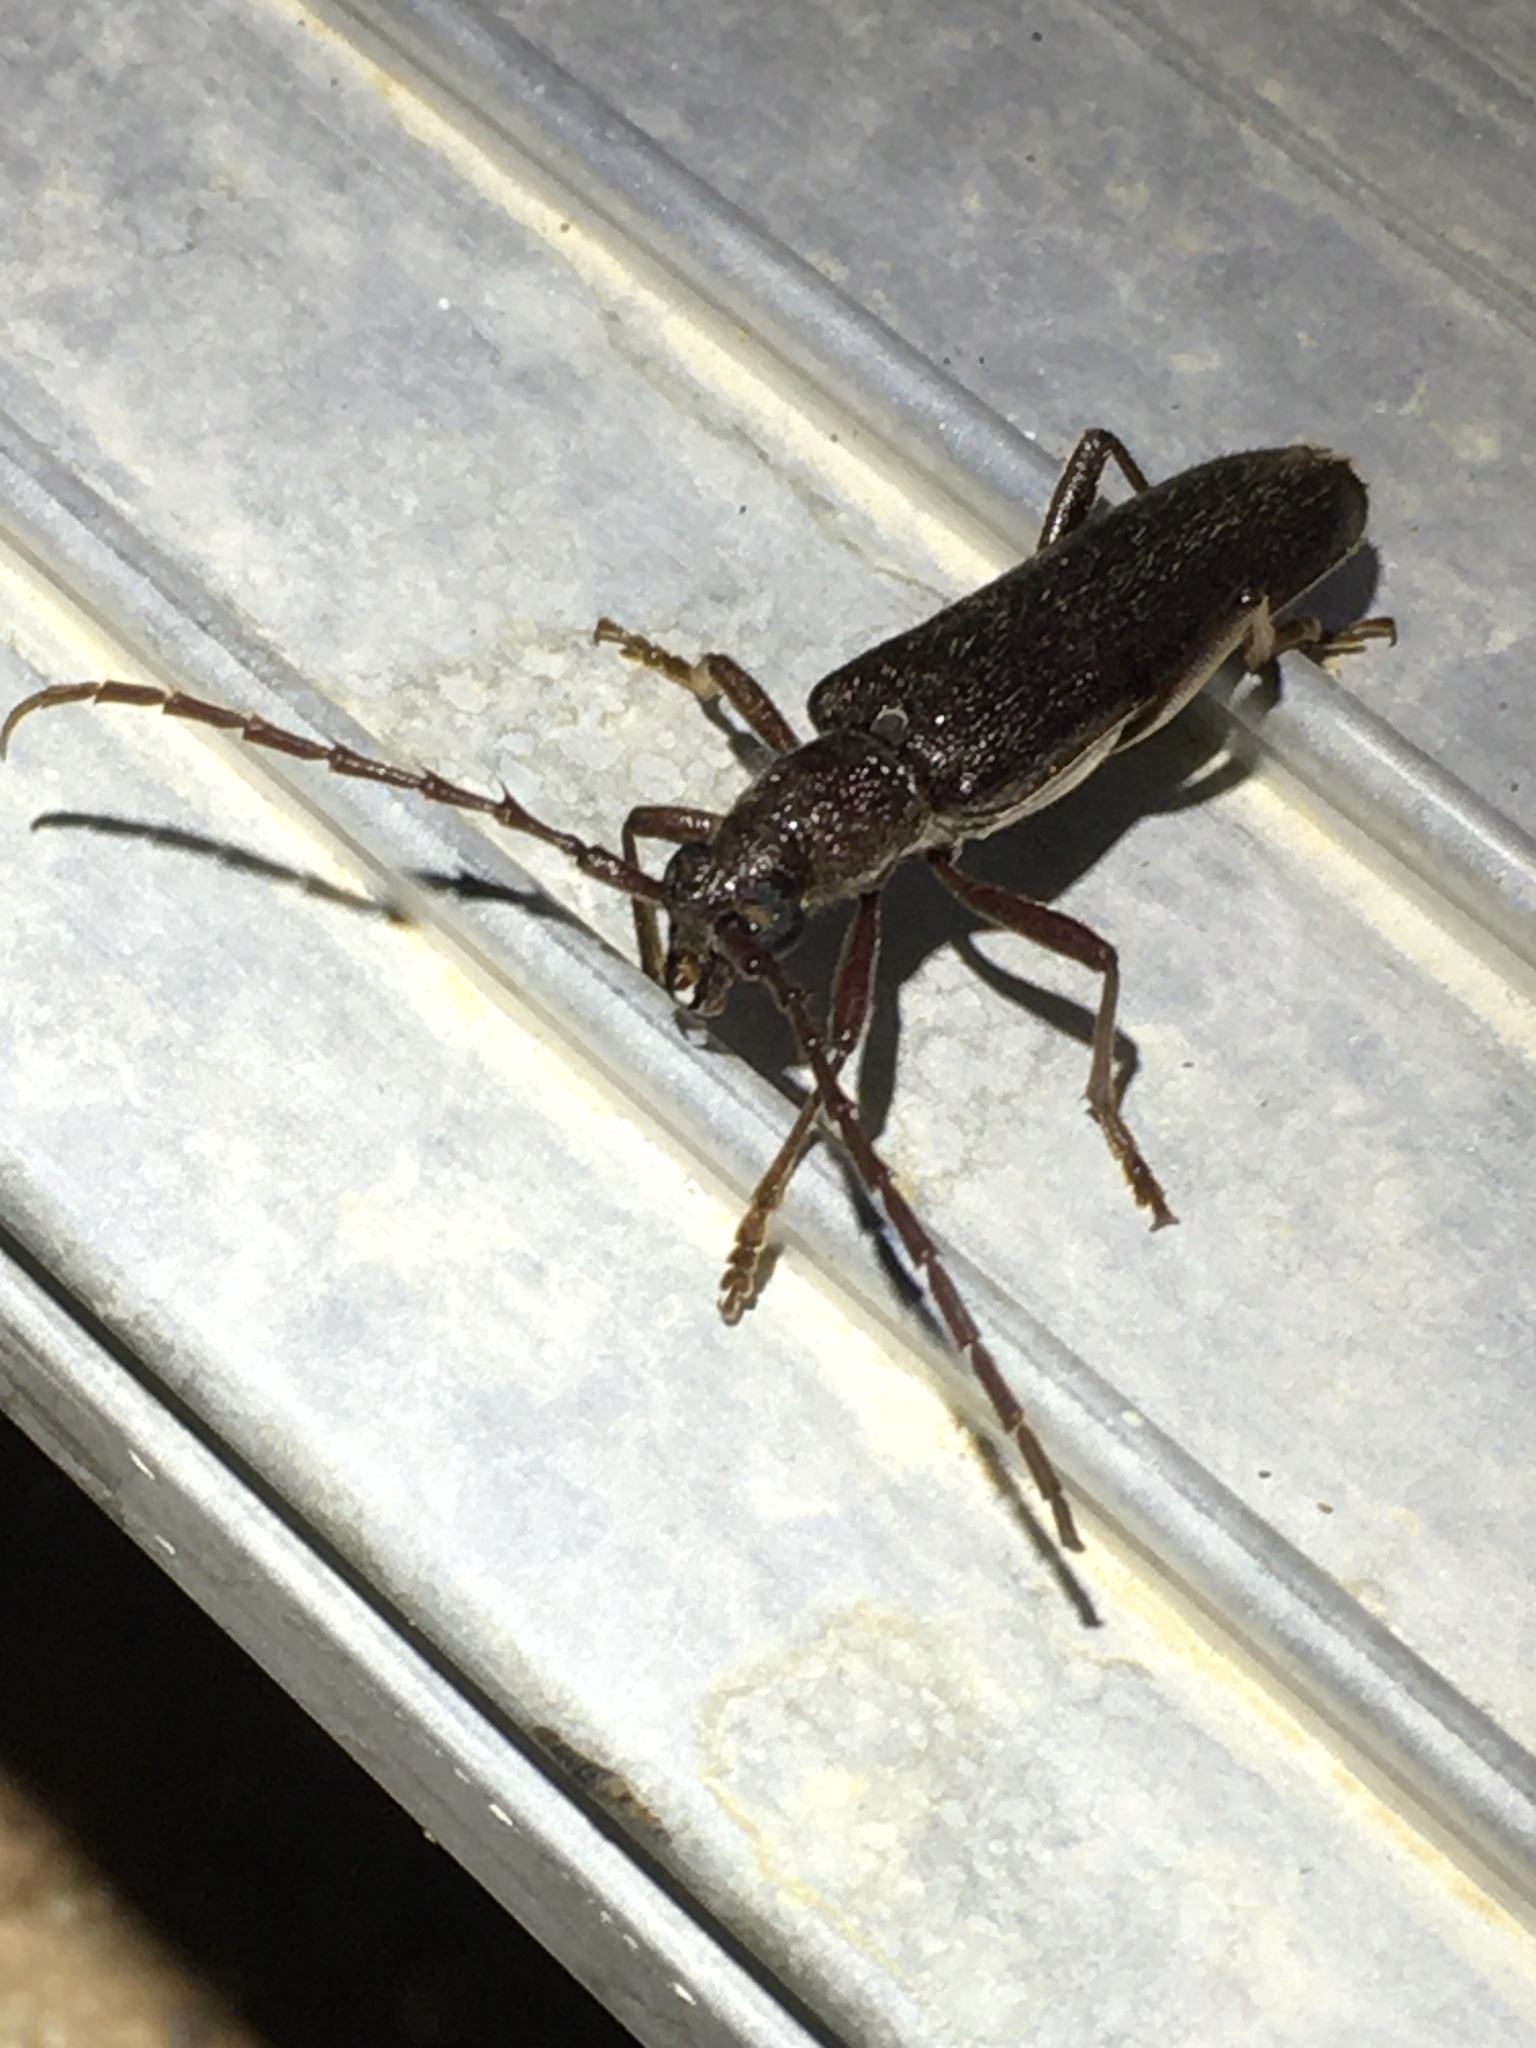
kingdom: Animalia
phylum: Arthropoda
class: Insecta
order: Coleoptera
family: Cerambycidae
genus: Aneflus
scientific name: Aneflus calvatus
